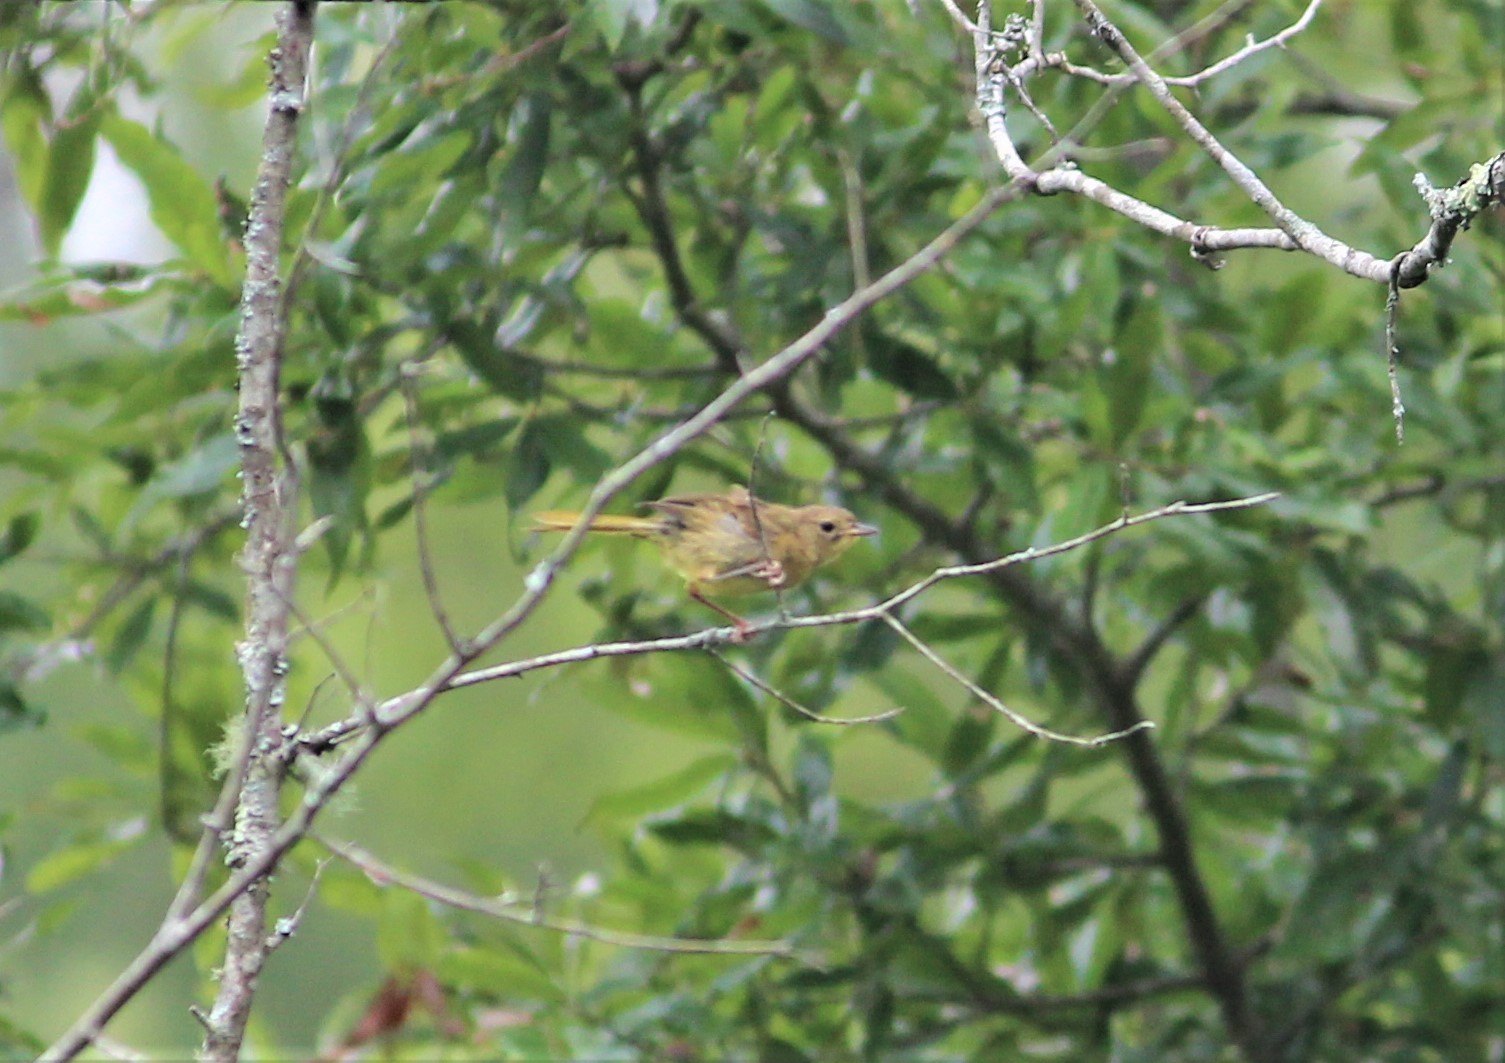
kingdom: Animalia
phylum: Chordata
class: Aves
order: Passeriformes
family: Parulidae
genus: Geothlypis
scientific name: Geothlypis trichas
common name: Common yellowthroat
